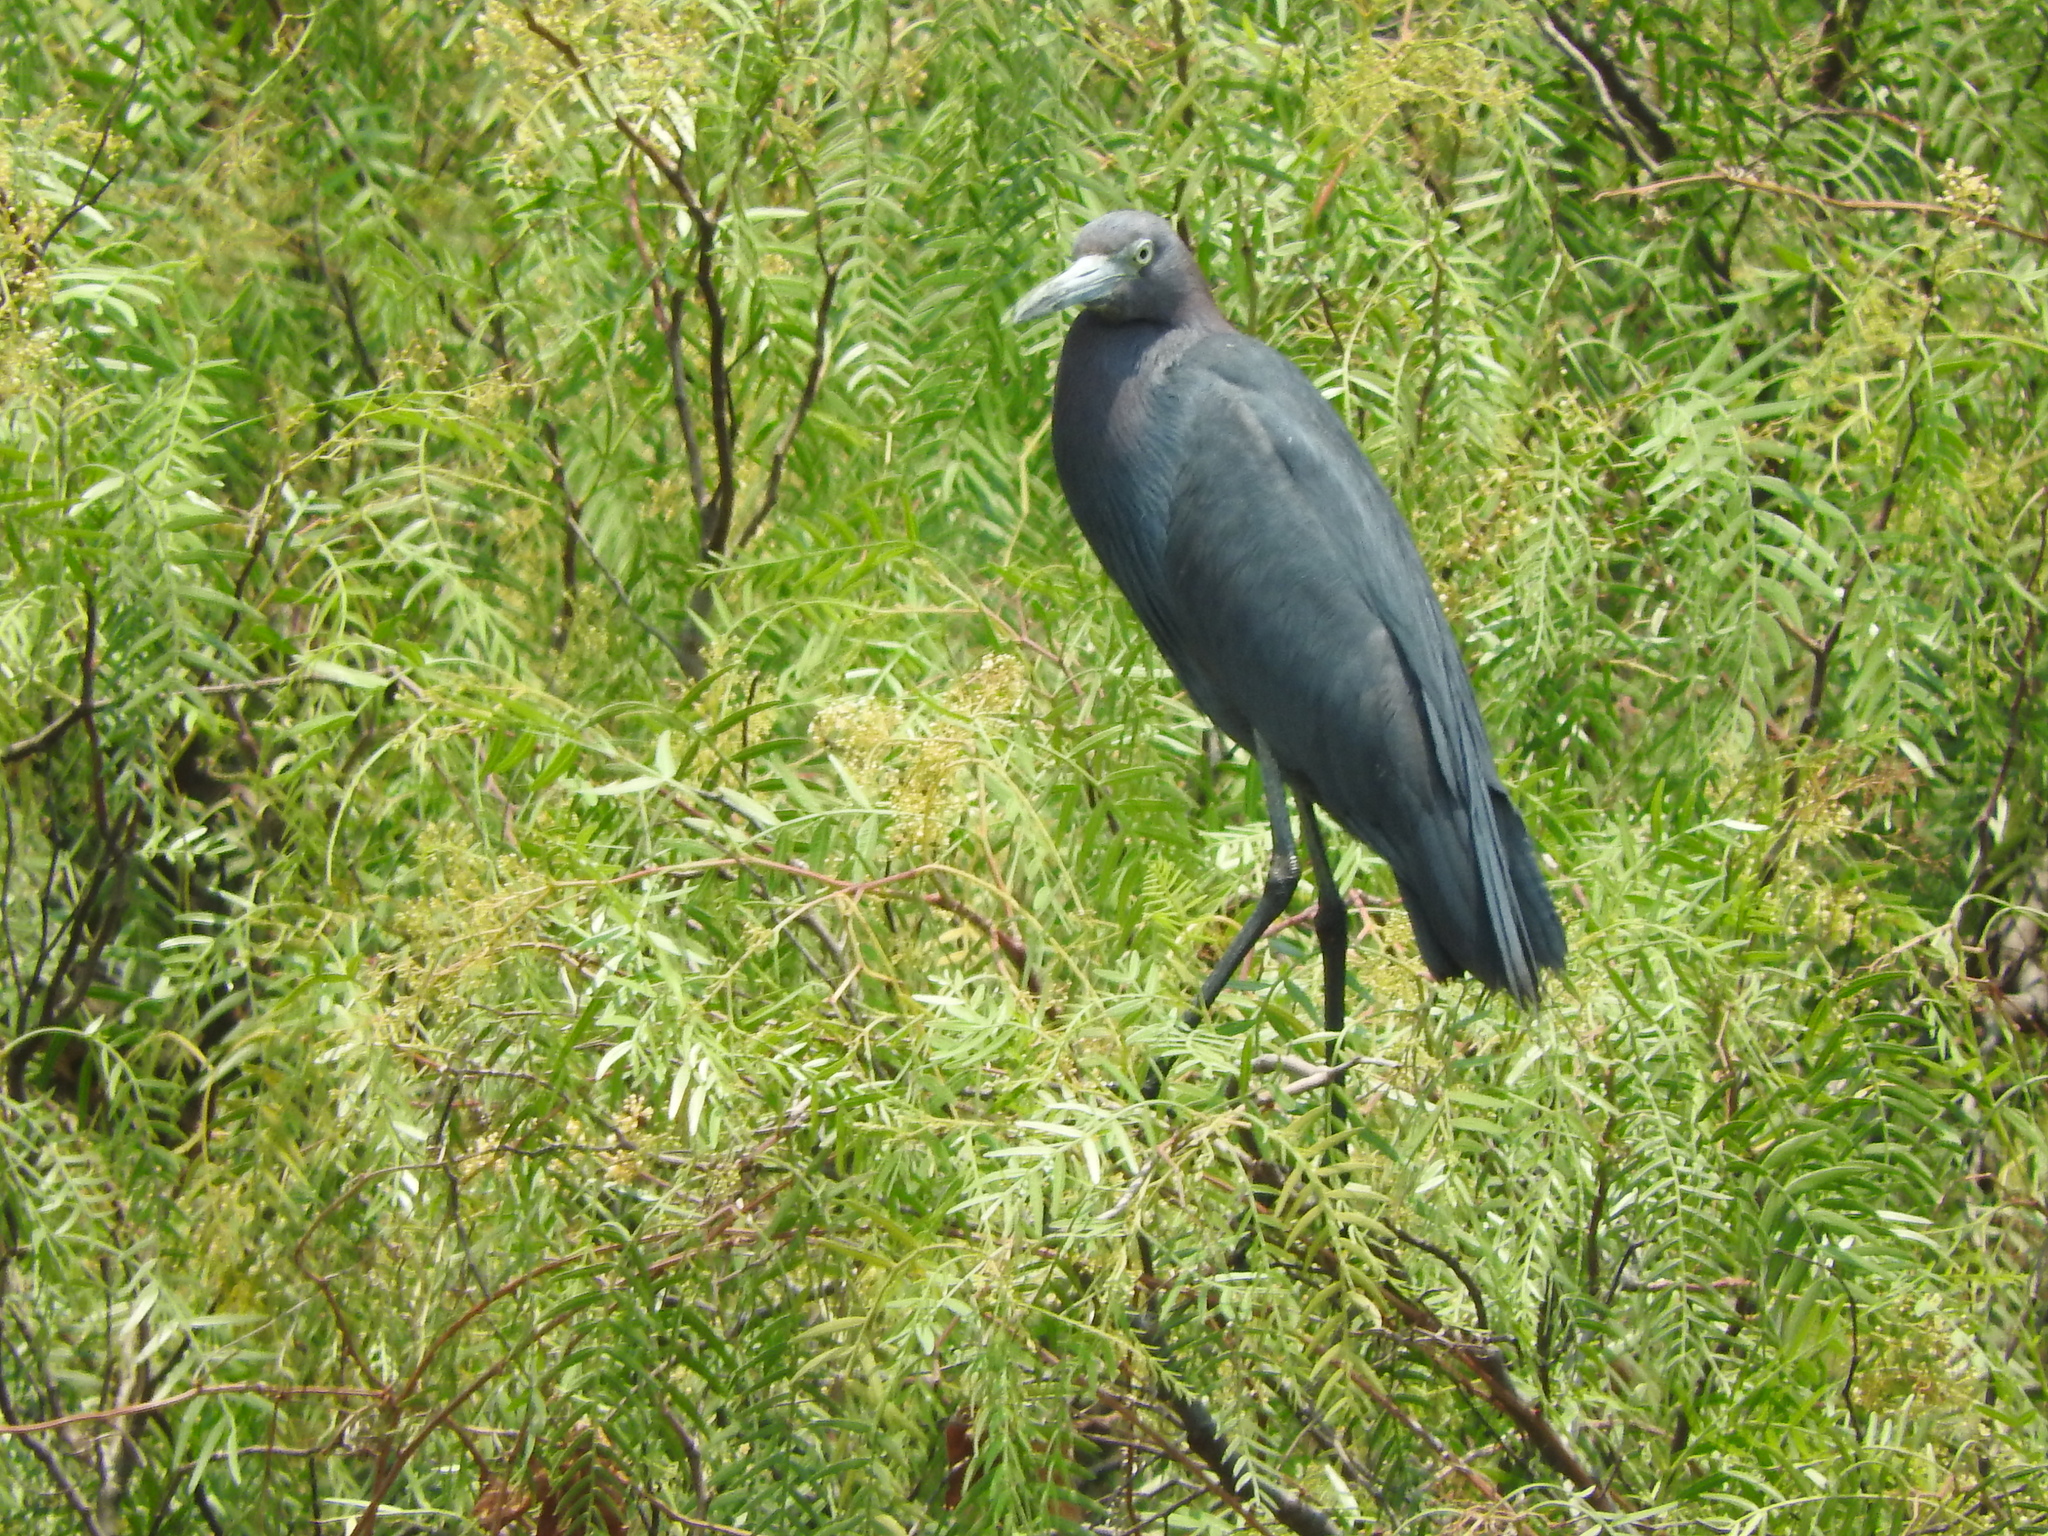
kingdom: Animalia
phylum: Chordata
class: Aves
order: Pelecaniformes
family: Ardeidae
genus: Egretta
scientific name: Egretta caerulea
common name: Little blue heron
